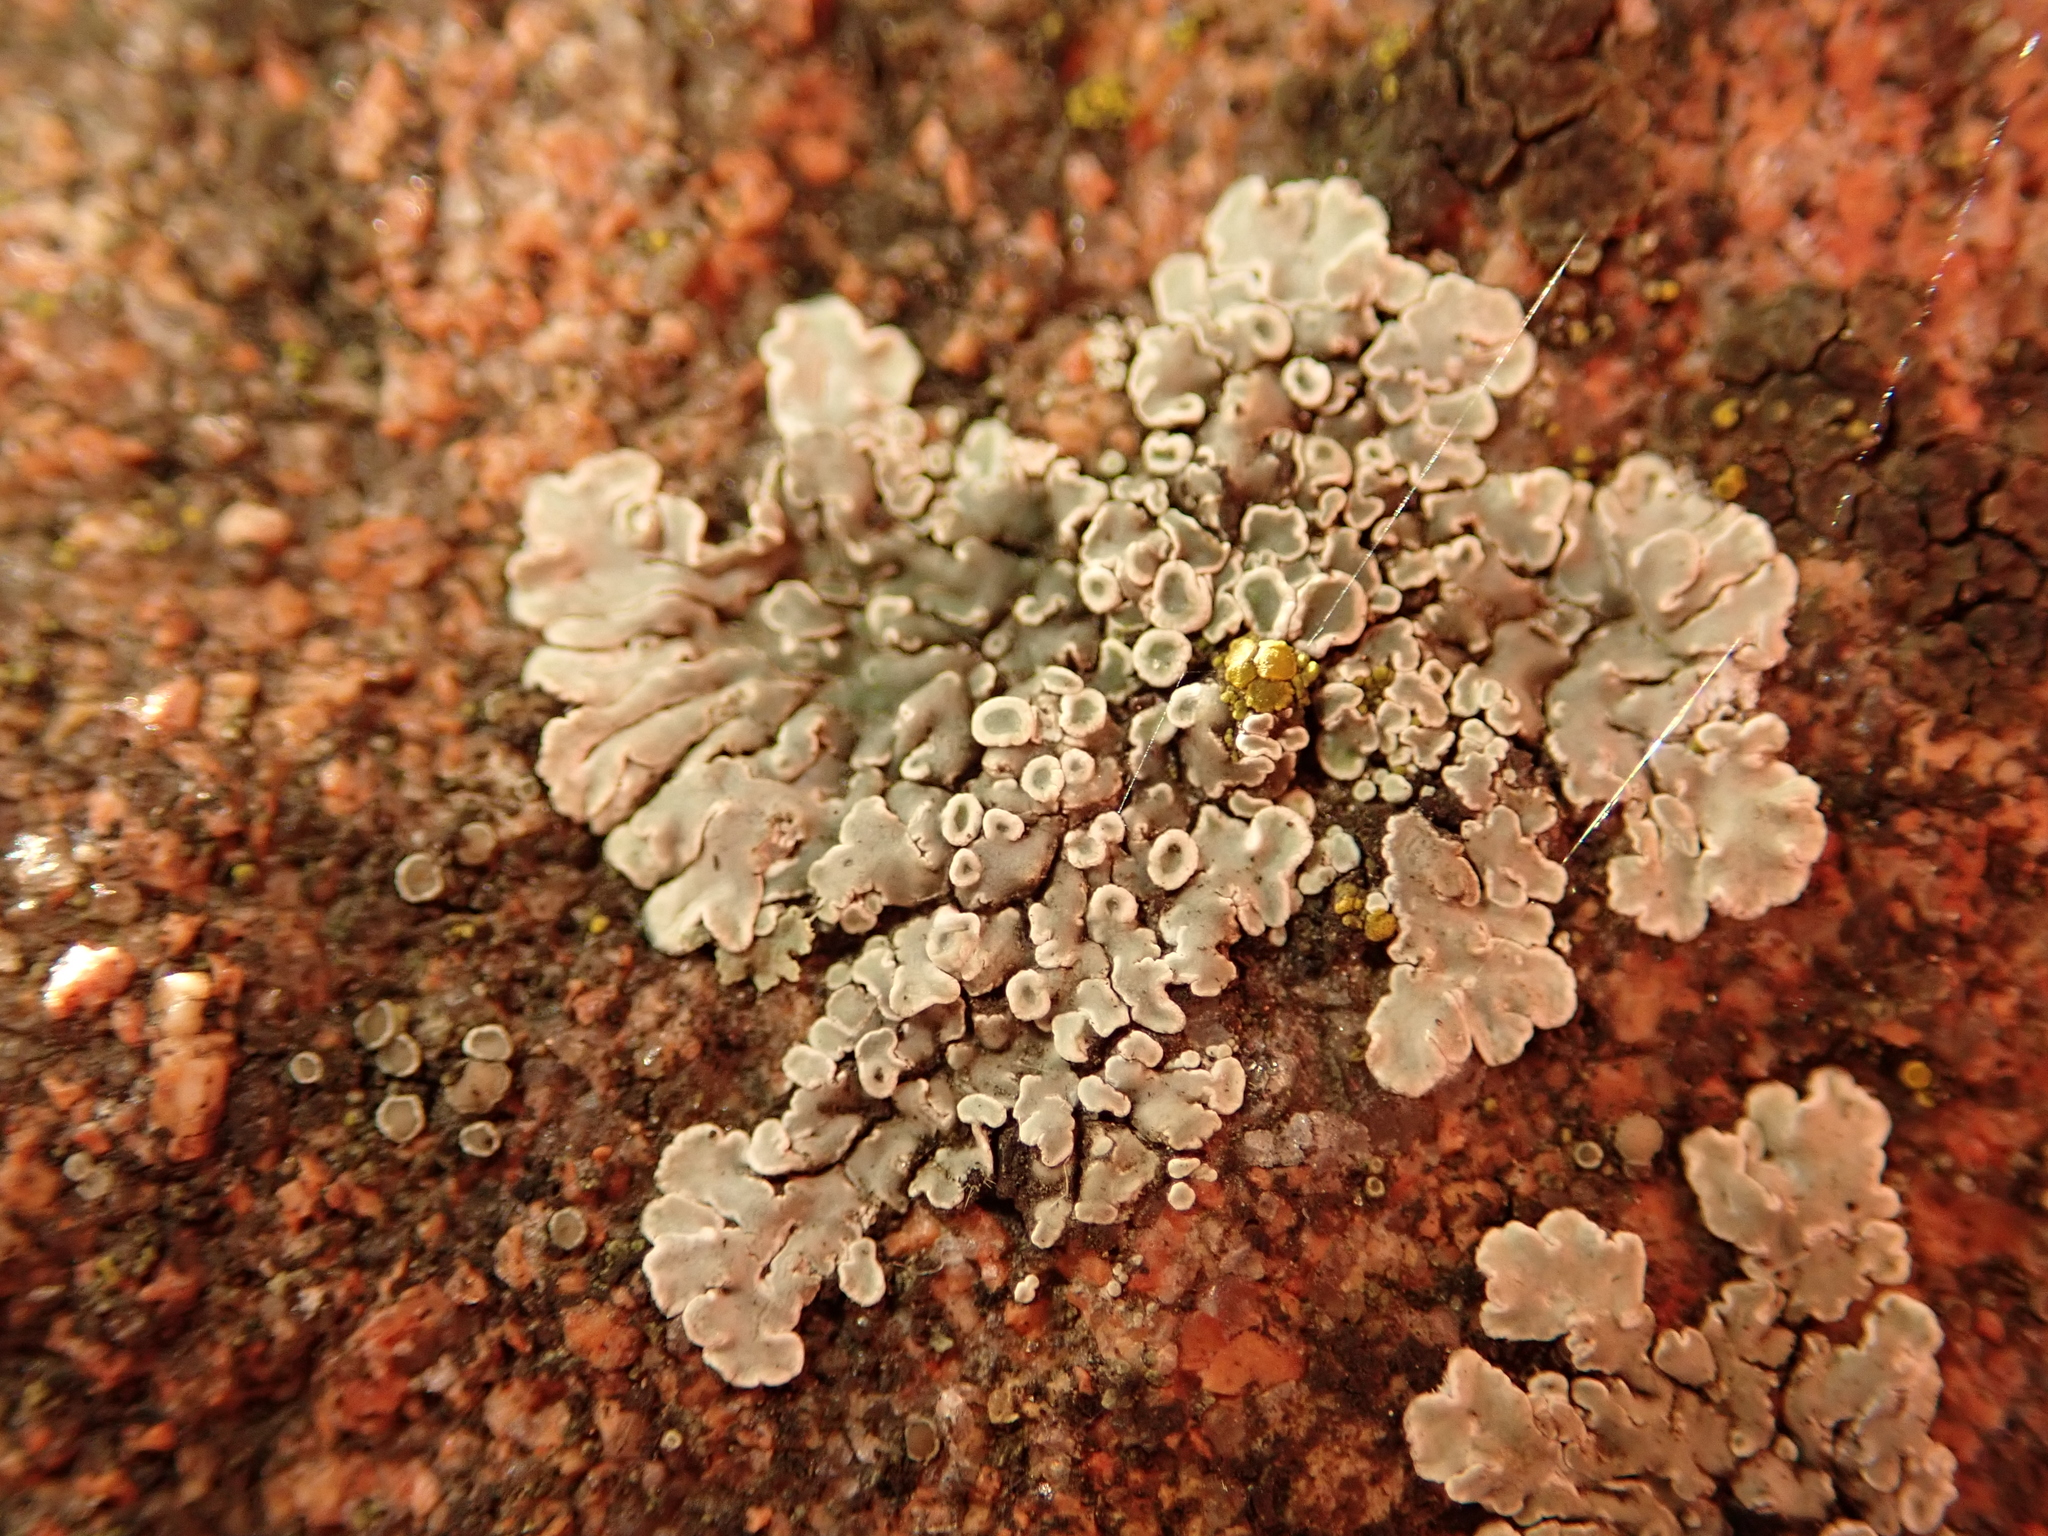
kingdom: Fungi
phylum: Ascomycota
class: Lecanoromycetes
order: Lecanorales
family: Lecanoraceae
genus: Protoparmeliopsis
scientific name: Protoparmeliopsis muralis
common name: Stonewall rim lichen
